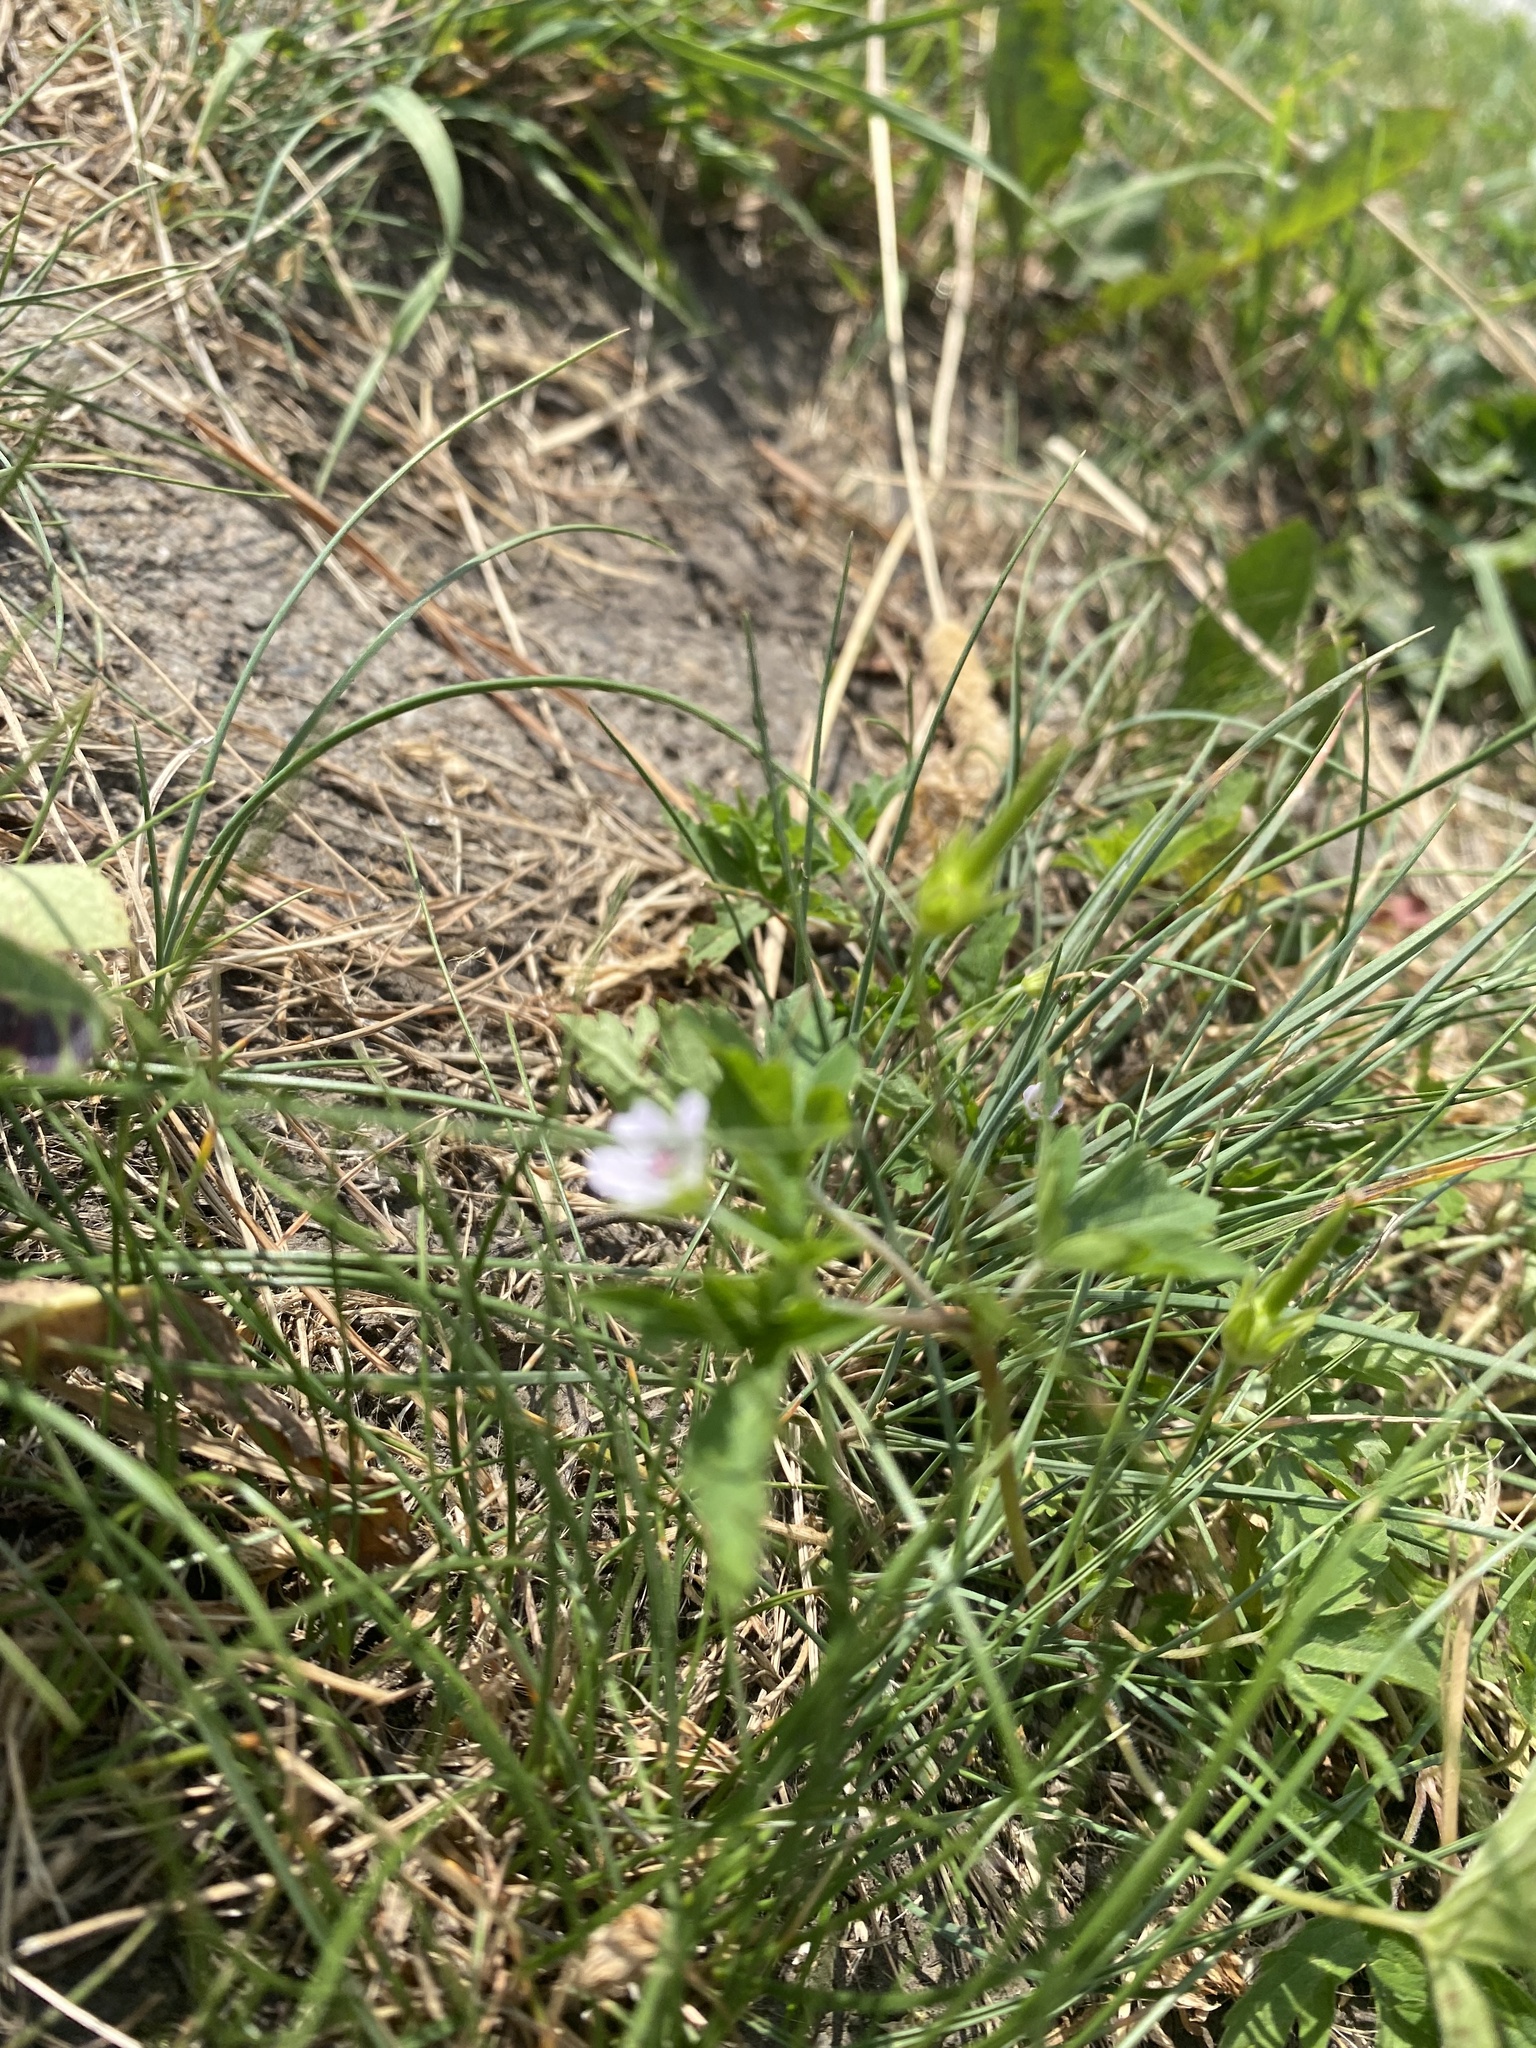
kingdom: Plantae
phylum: Tracheophyta
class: Magnoliopsida
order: Geraniales
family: Geraniaceae
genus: Geranium
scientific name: Geranium sibiricum
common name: Siberian crane's-bill
